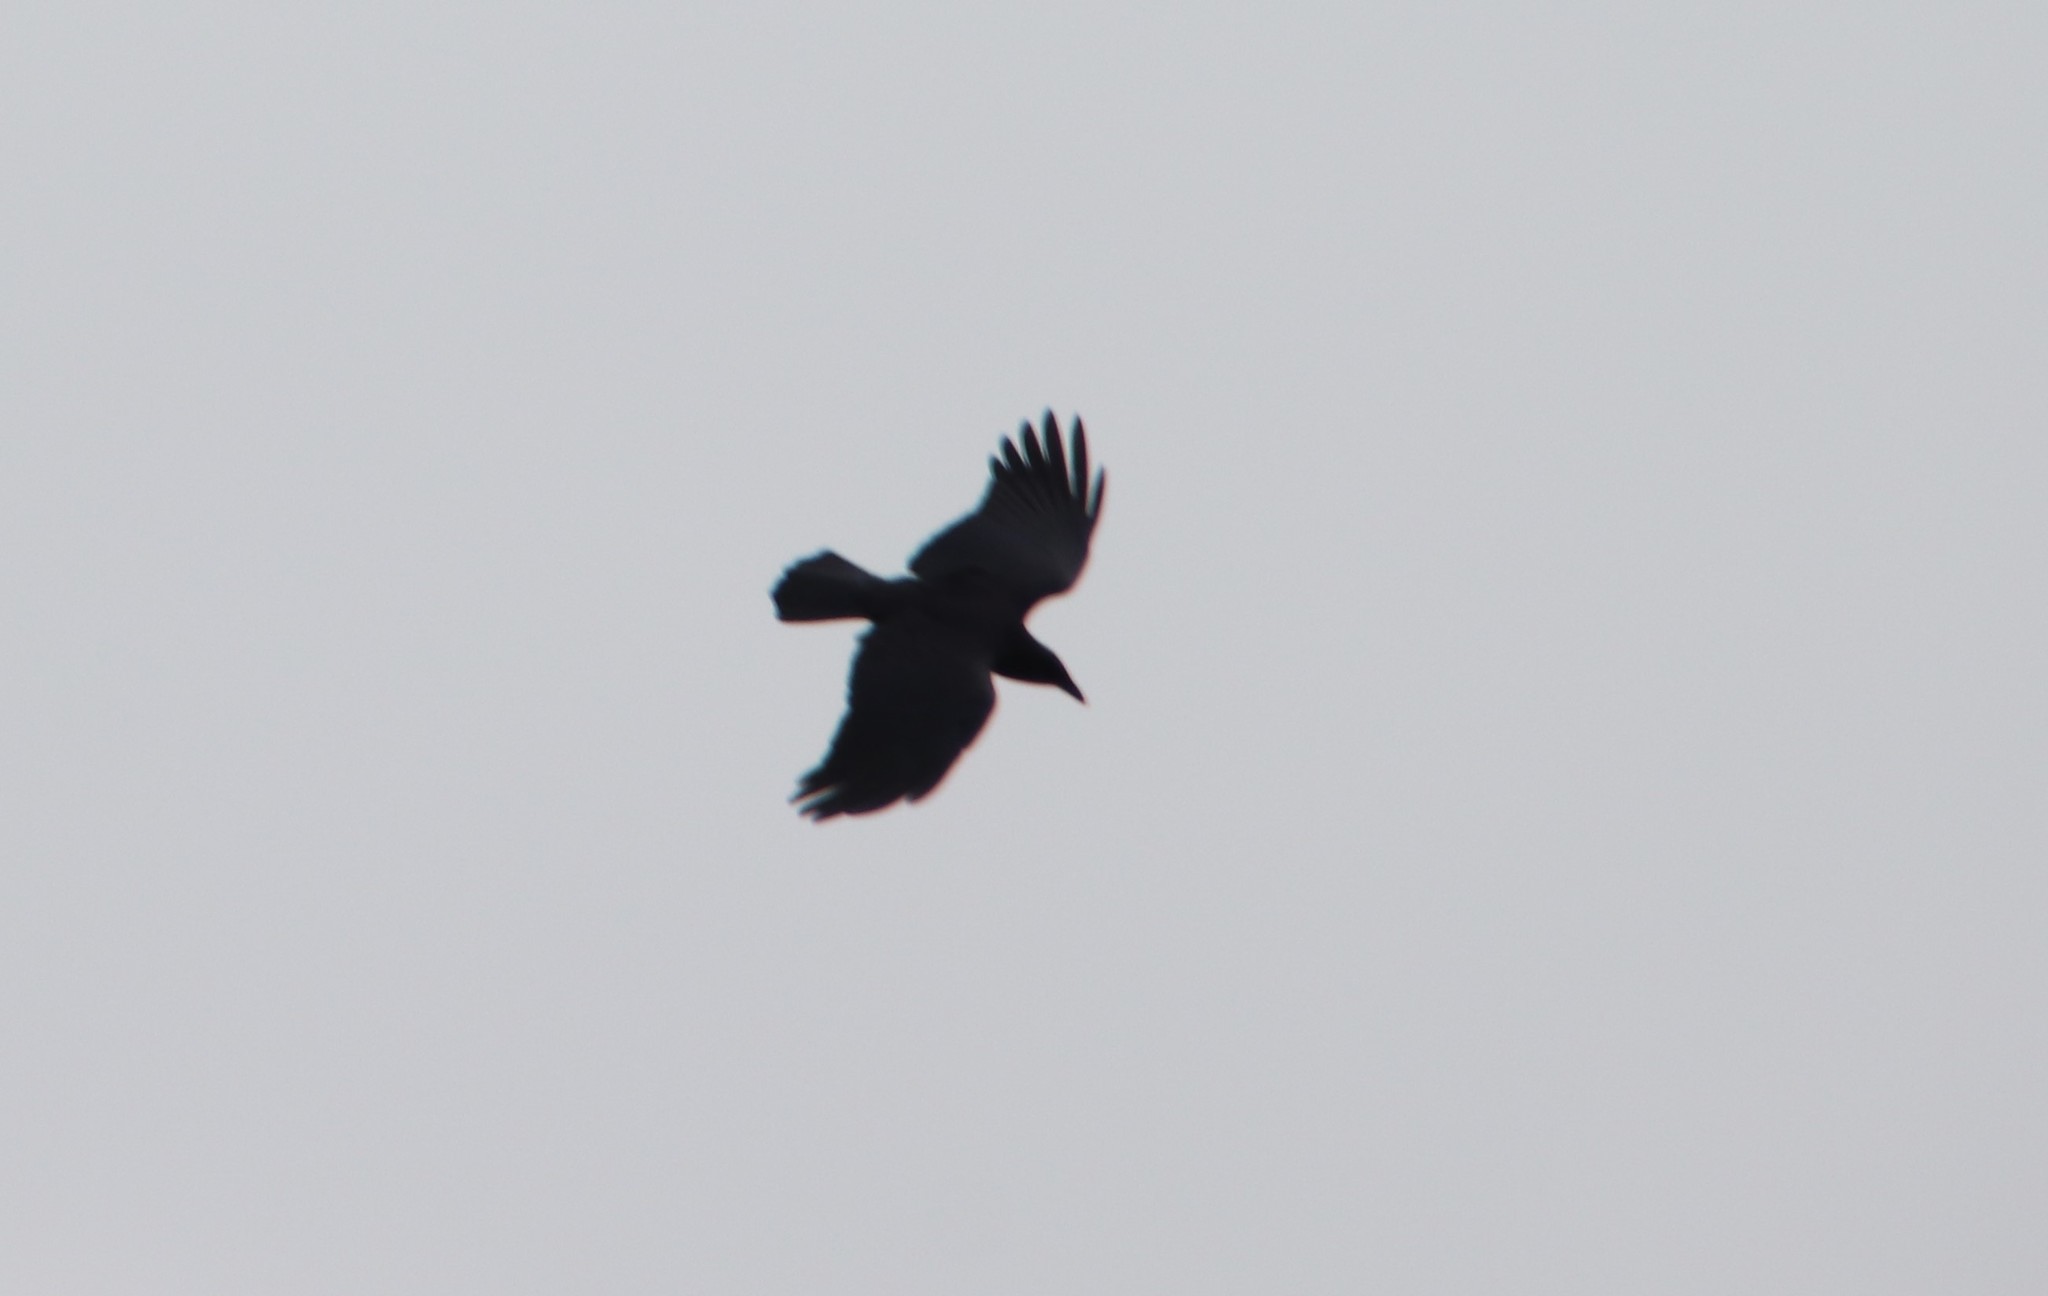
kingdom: Animalia
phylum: Chordata
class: Aves
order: Passeriformes
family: Corvidae
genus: Corvus
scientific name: Corvus brachyrhynchos
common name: American crow
